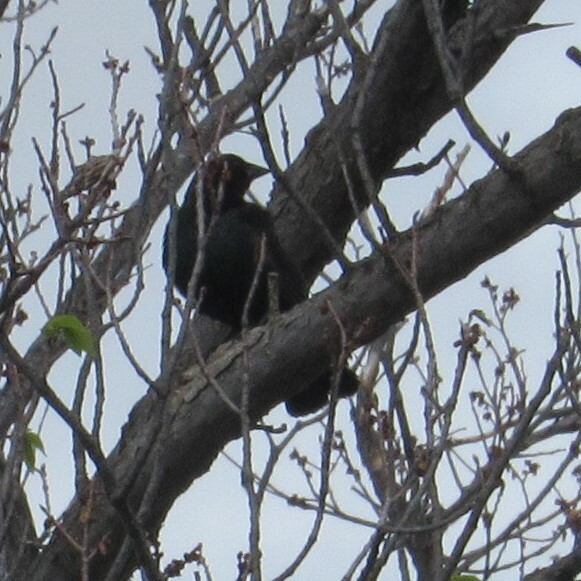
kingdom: Animalia
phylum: Chordata
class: Aves
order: Passeriformes
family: Icteridae
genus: Molothrus
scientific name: Molothrus ater
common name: Brown-headed cowbird
